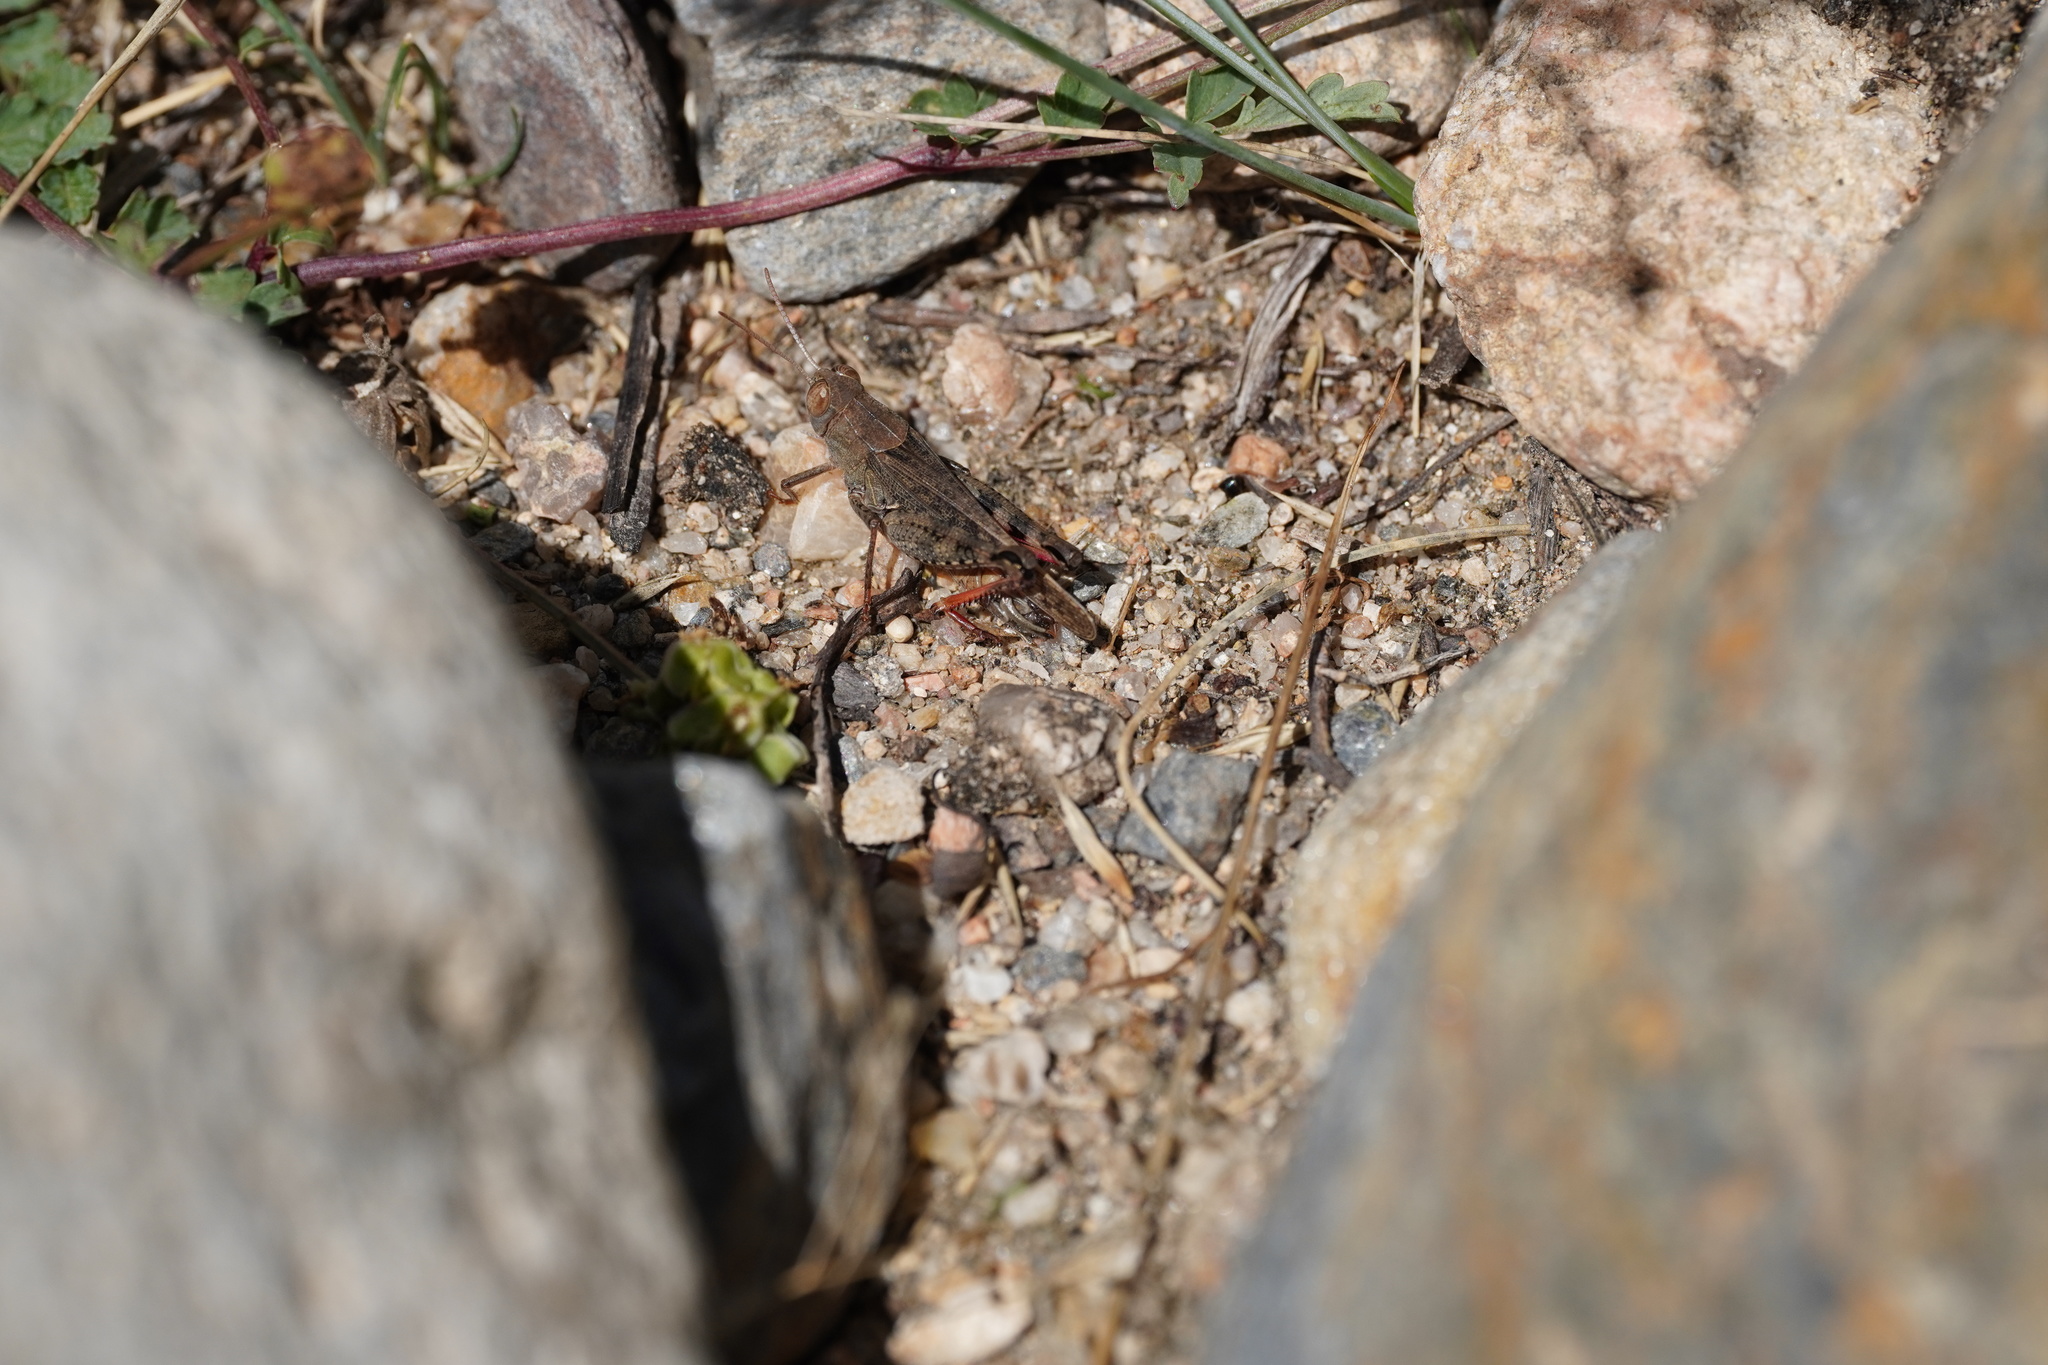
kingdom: Animalia
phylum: Arthropoda
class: Insecta
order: Orthoptera
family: Acrididae
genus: Calliptamus
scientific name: Calliptamus italicus
